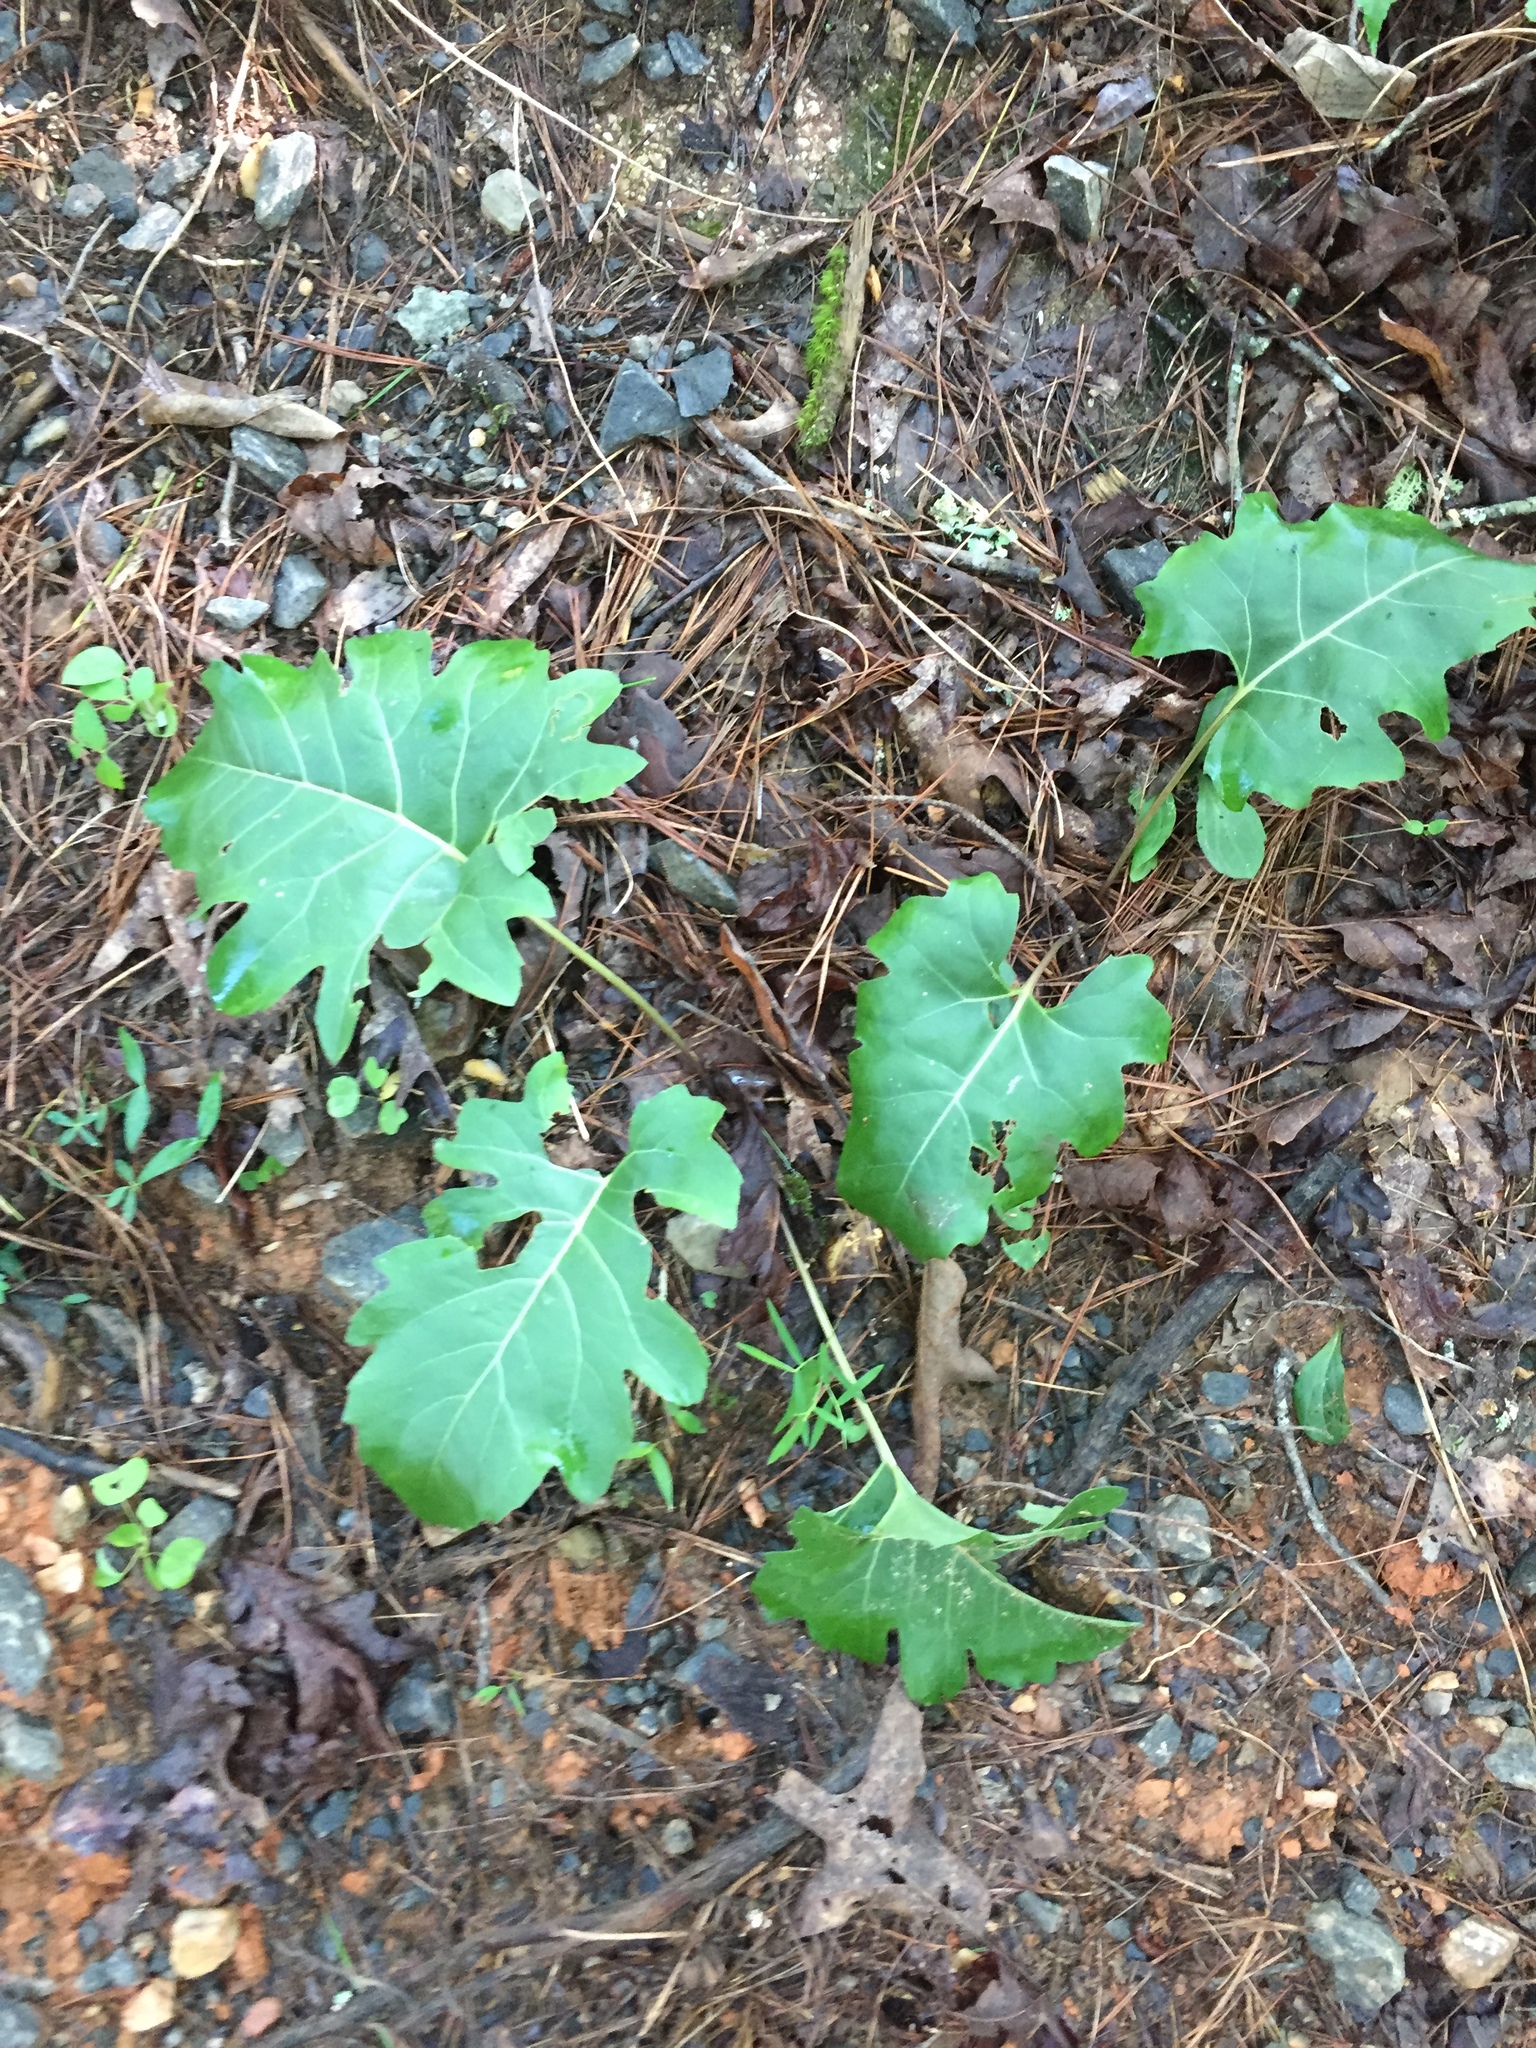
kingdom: Plantae
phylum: Tracheophyta
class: Magnoliopsida
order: Asterales
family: Asteraceae
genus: Silphium
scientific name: Silphium compositum
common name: Lesser basal-leaf rosinweed
